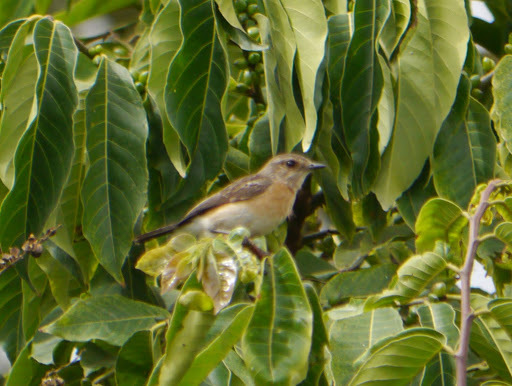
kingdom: Animalia
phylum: Chordata
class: Aves
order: Passeriformes
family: Muscicapidae
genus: Saxicola
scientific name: Saxicola torquatus
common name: African stonechat
